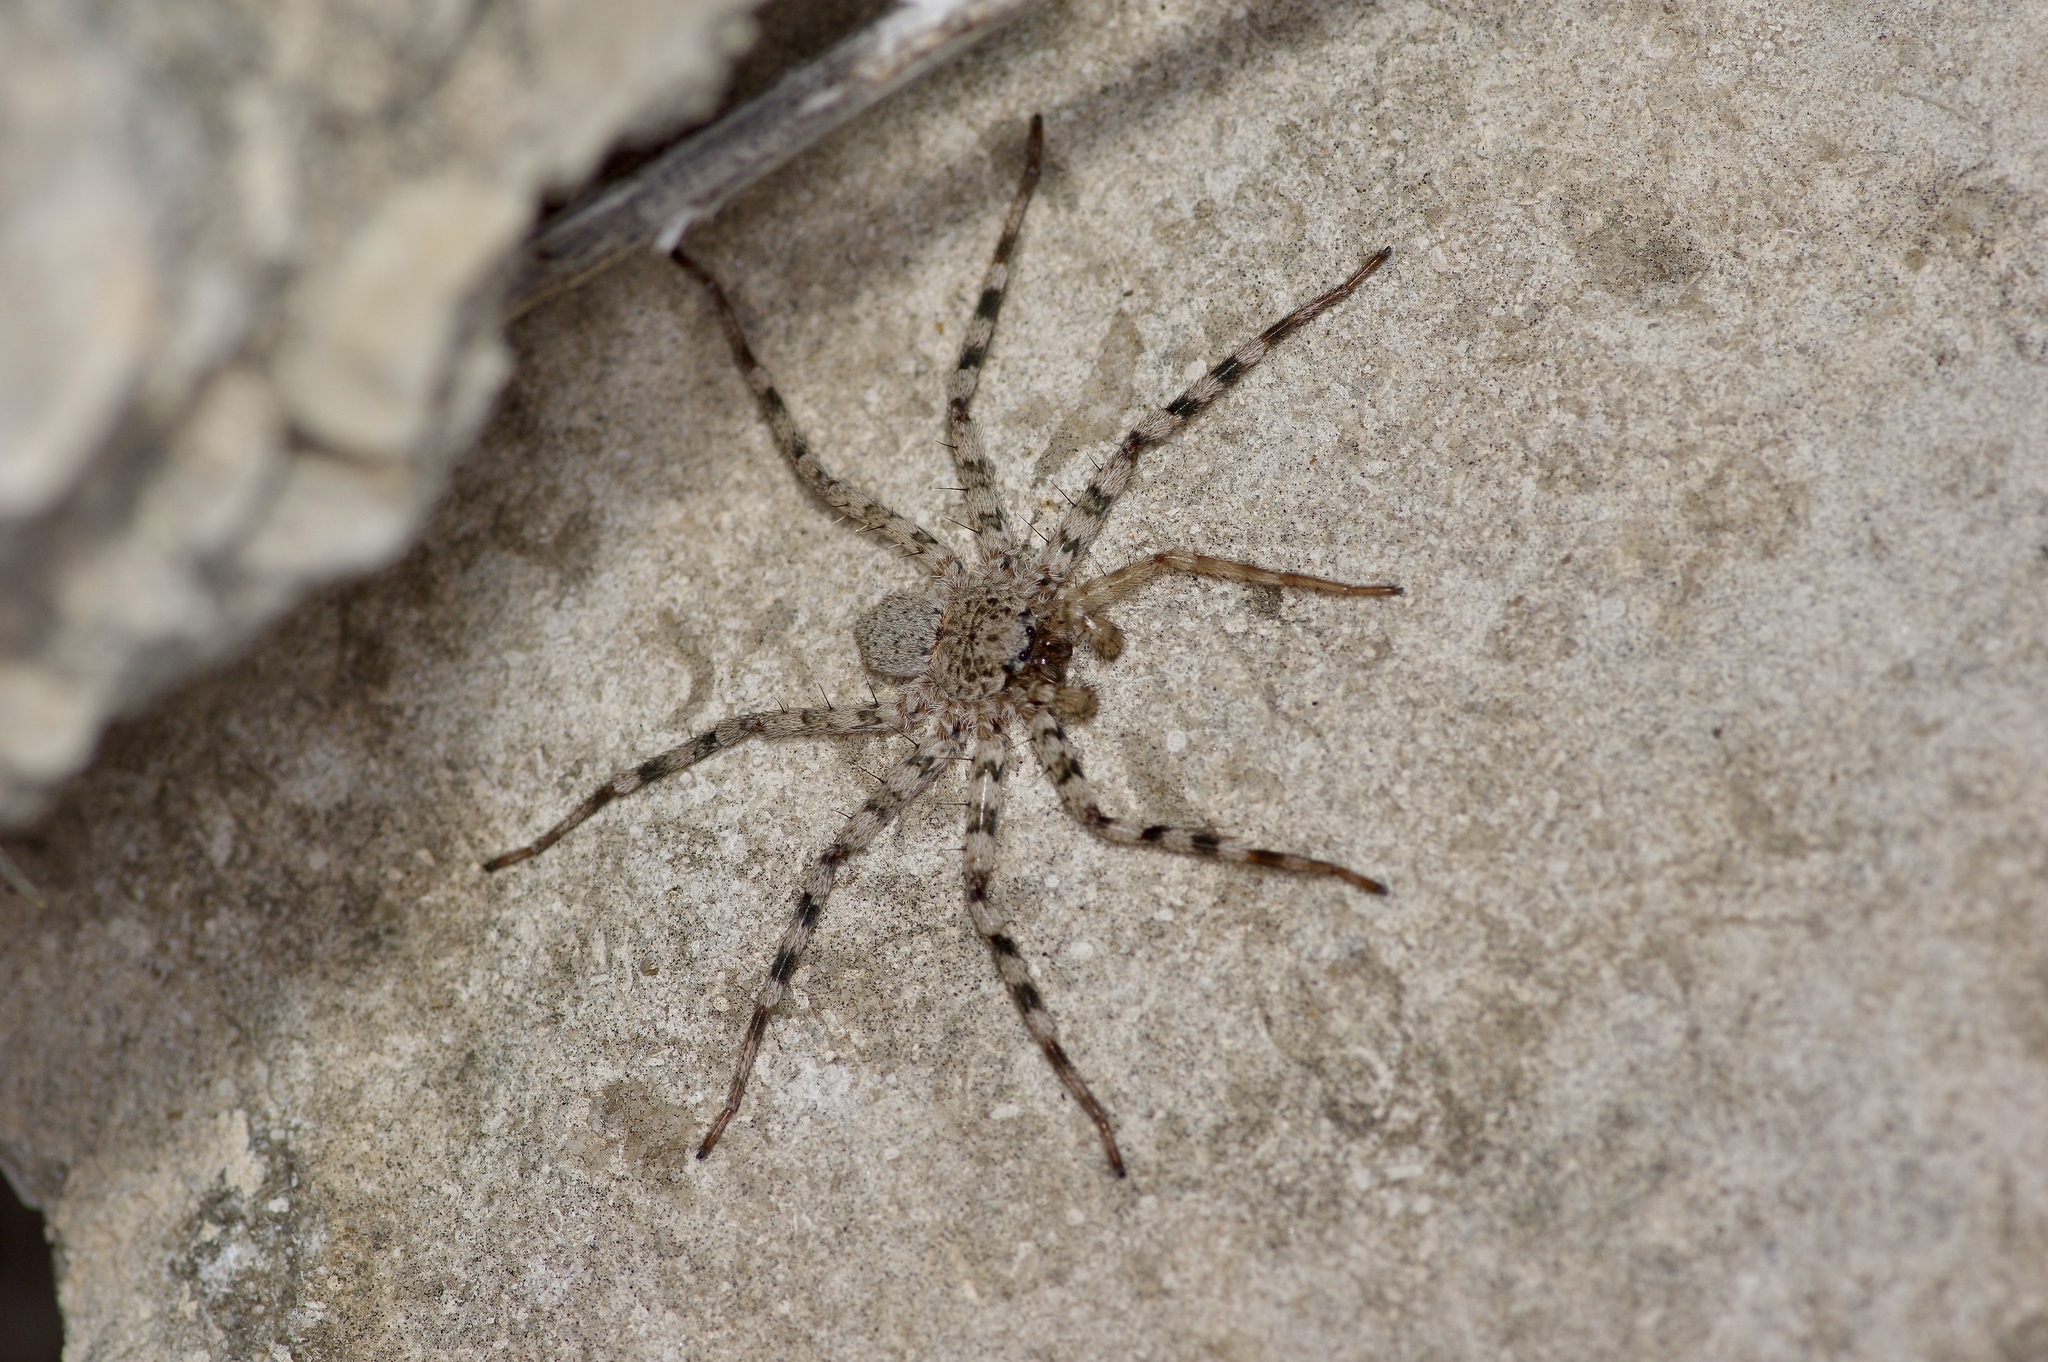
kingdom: Animalia
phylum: Arthropoda
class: Arachnida
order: Araneae
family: Selenopidae
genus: Selenops
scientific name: Selenops
